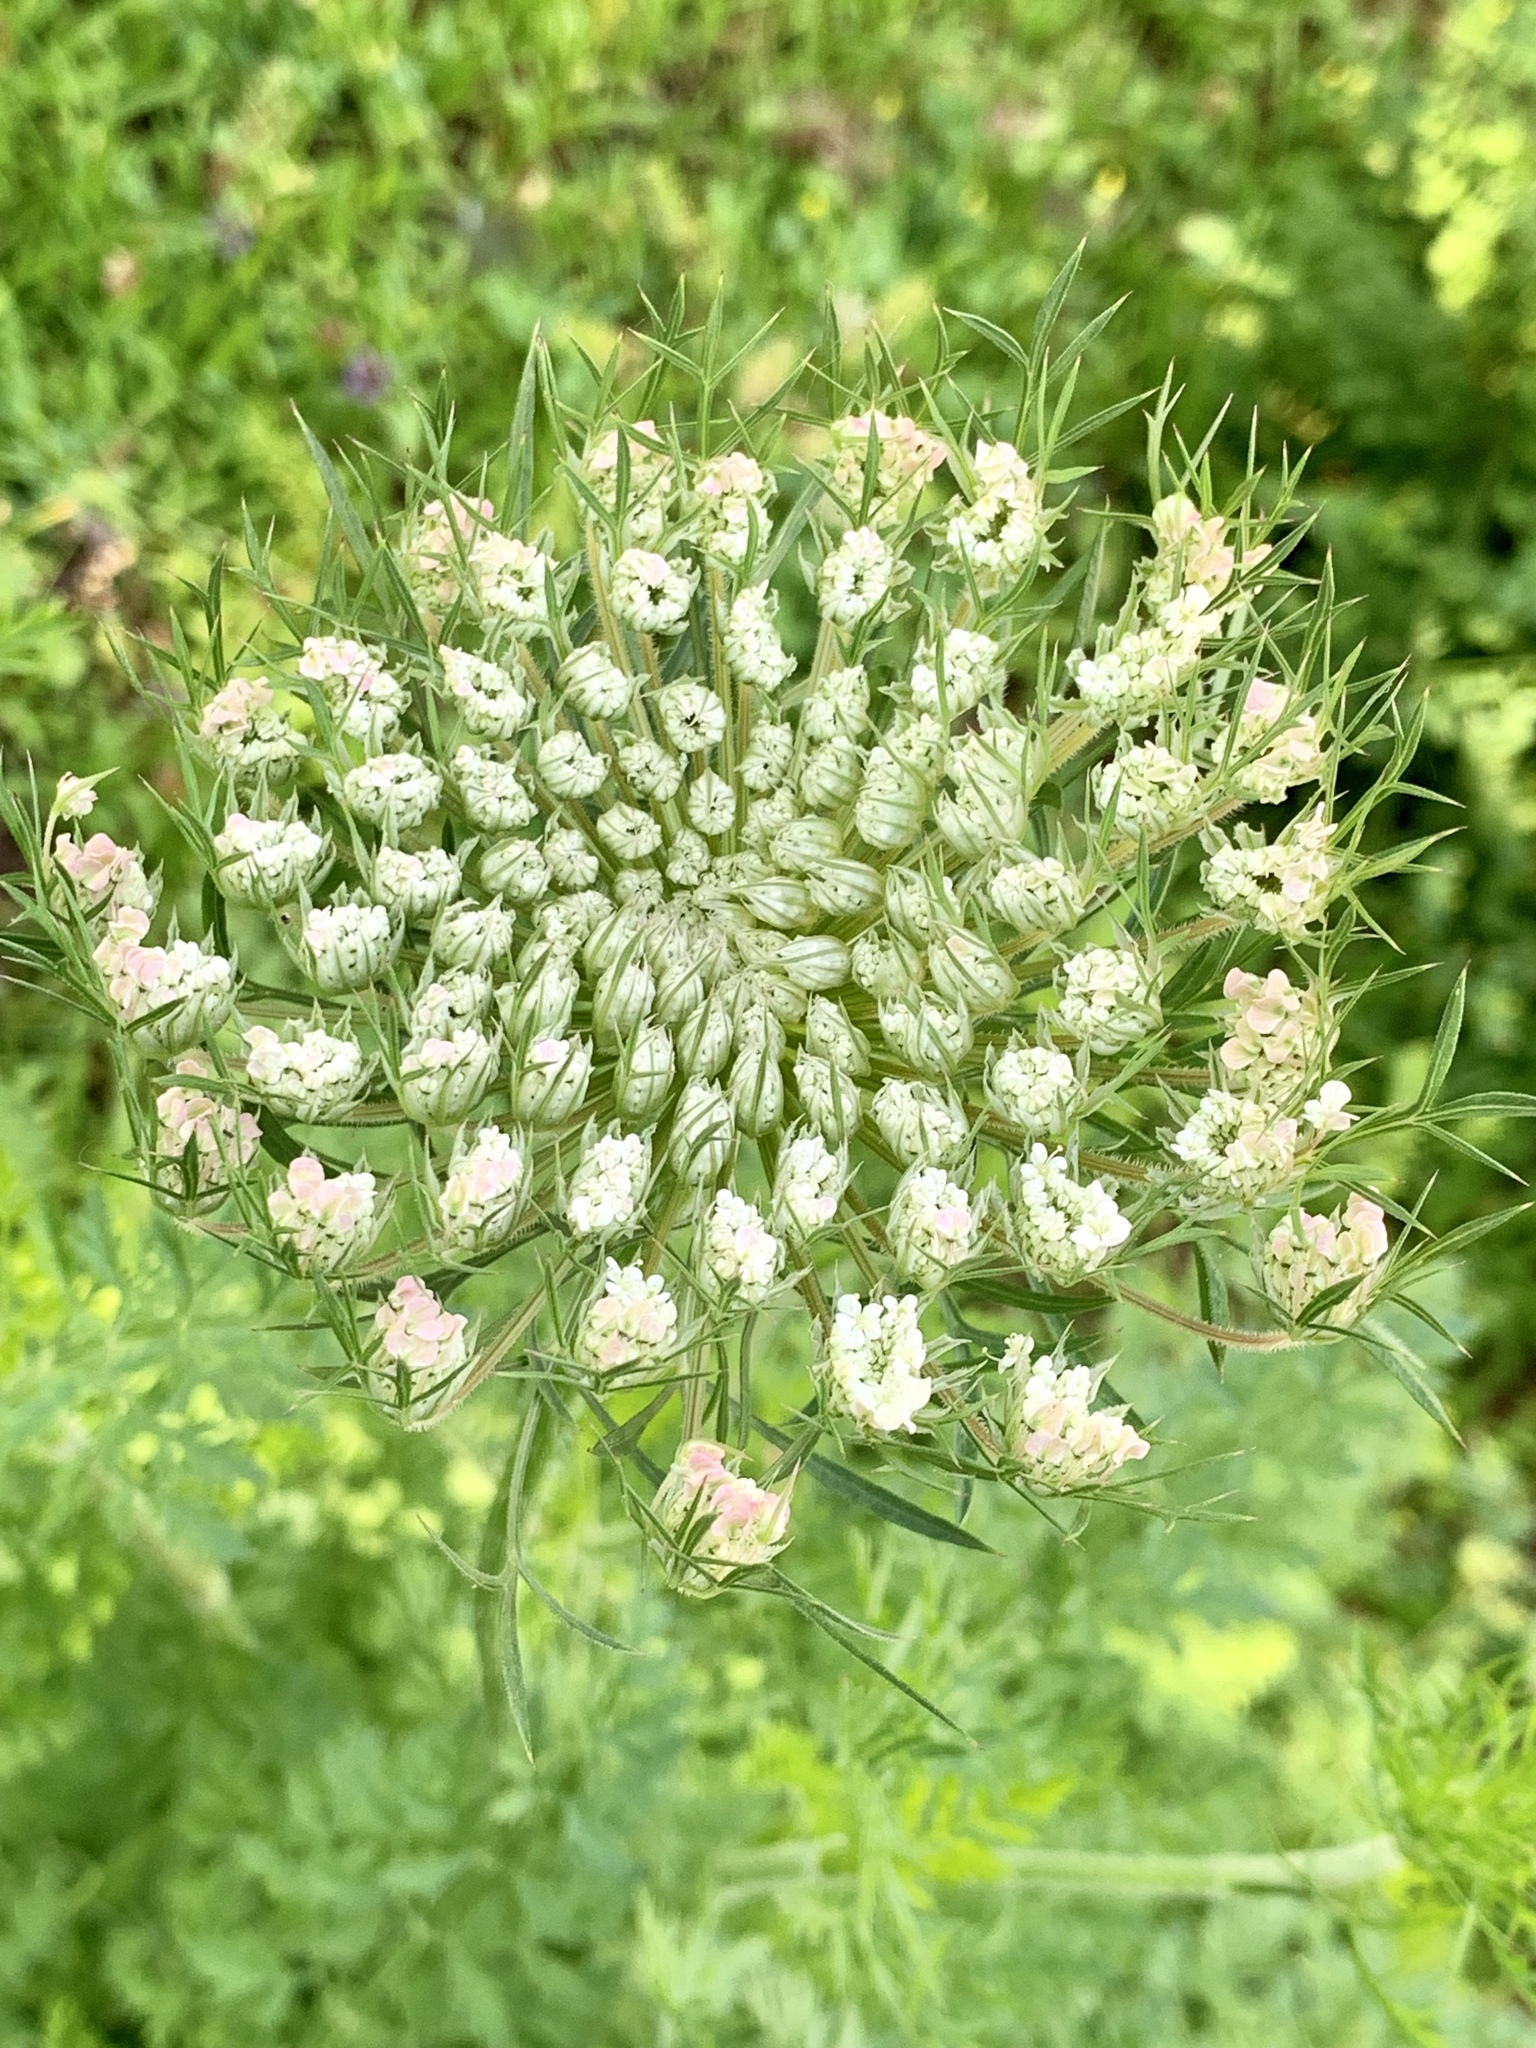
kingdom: Plantae
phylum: Tracheophyta
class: Magnoliopsida
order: Apiales
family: Apiaceae
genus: Daucus
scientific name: Daucus carota
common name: Wild carrot
